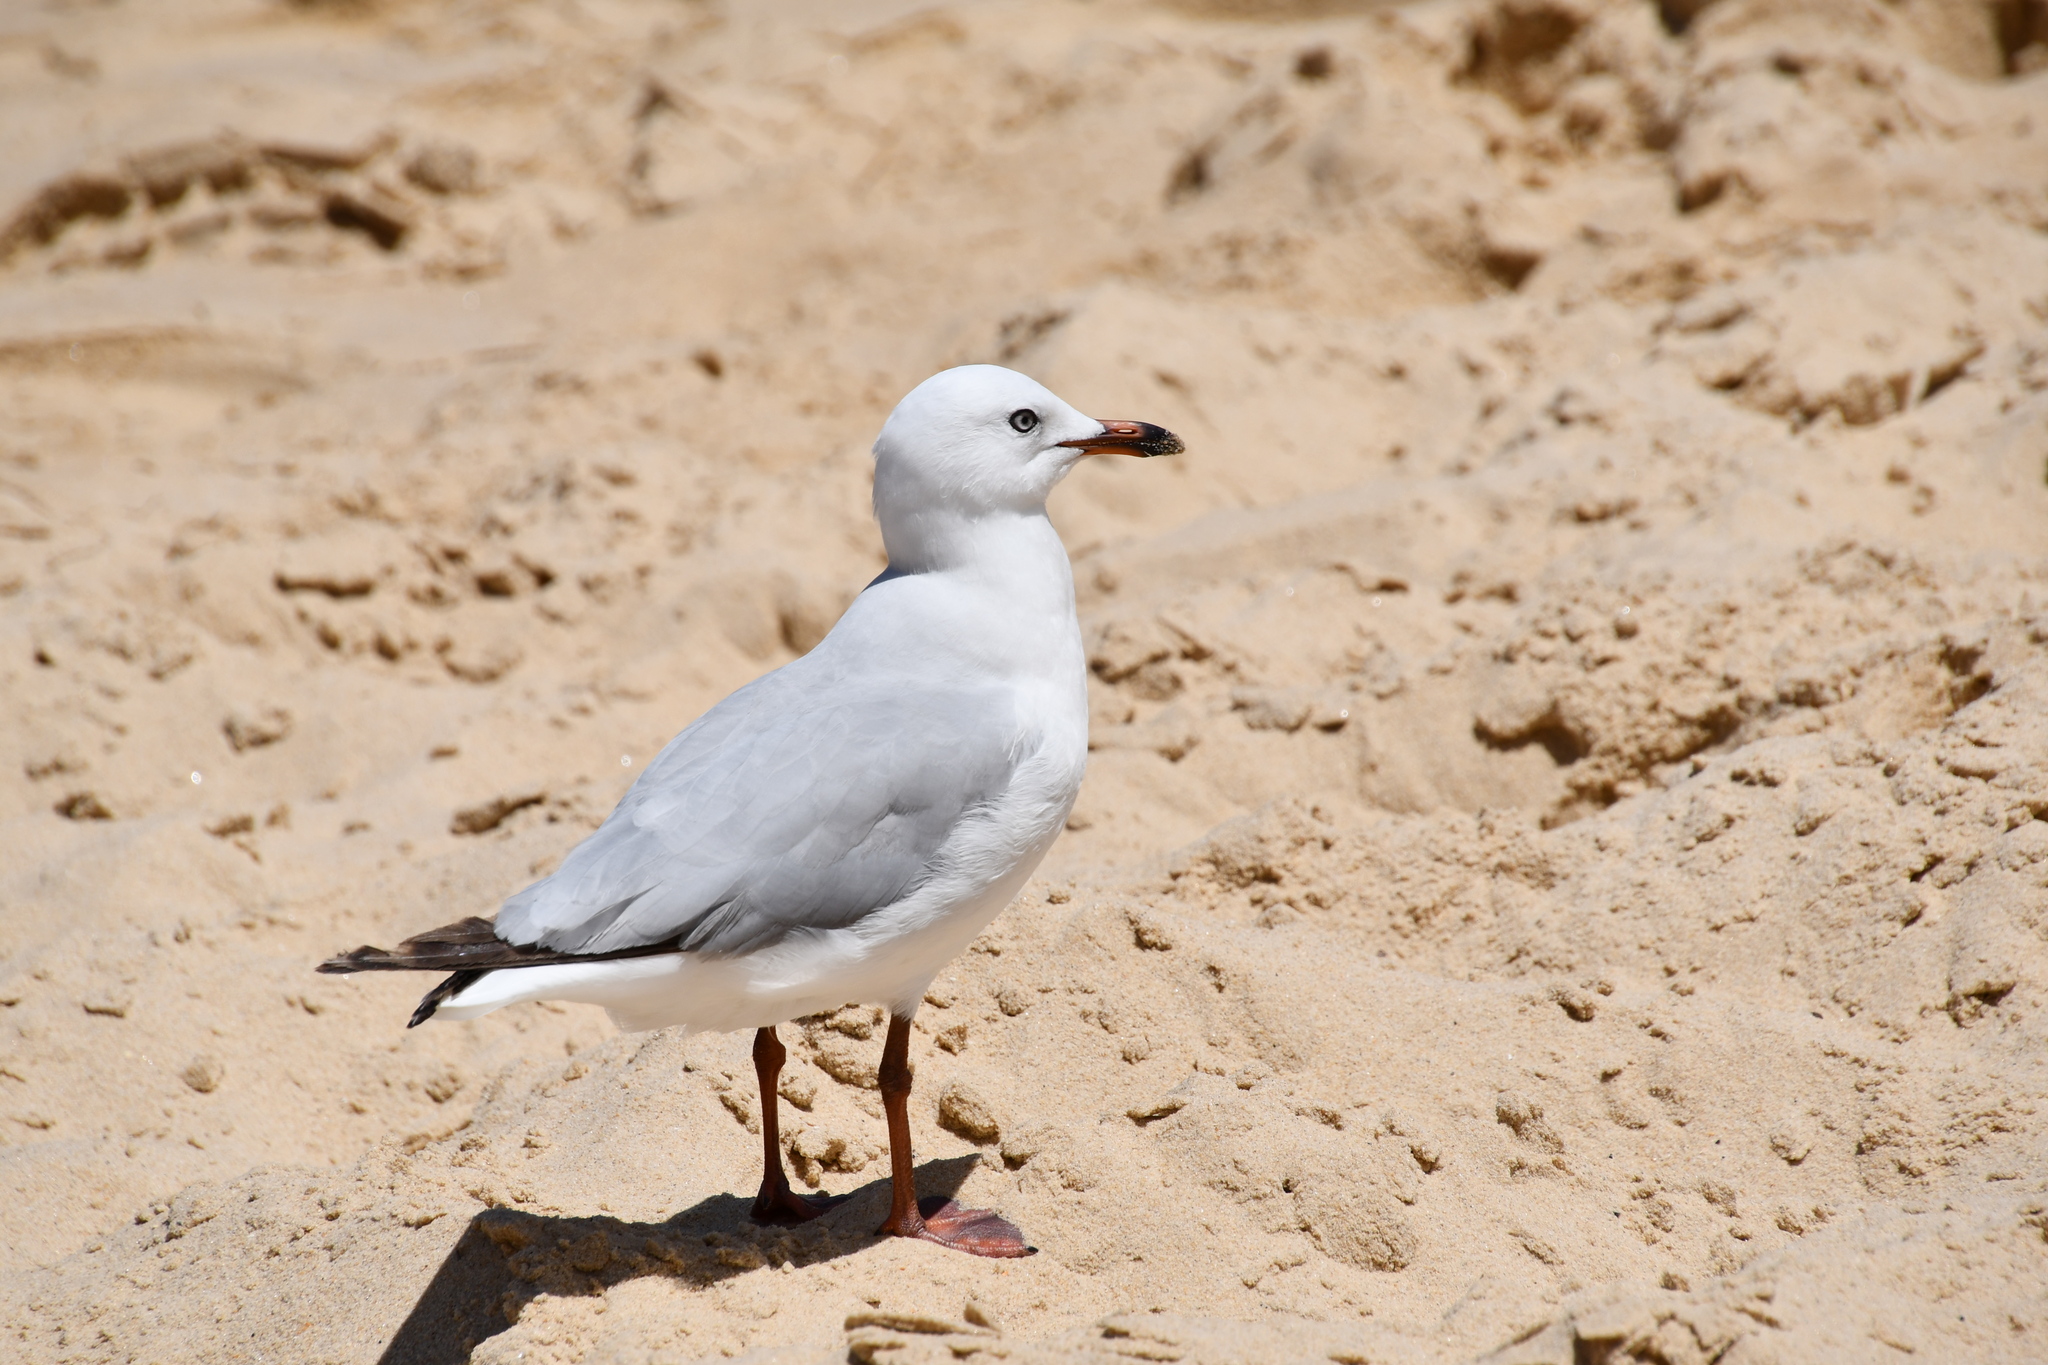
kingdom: Animalia
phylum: Chordata
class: Aves
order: Charadriiformes
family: Laridae
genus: Chroicocephalus
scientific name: Chroicocephalus novaehollandiae
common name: Silver gull
